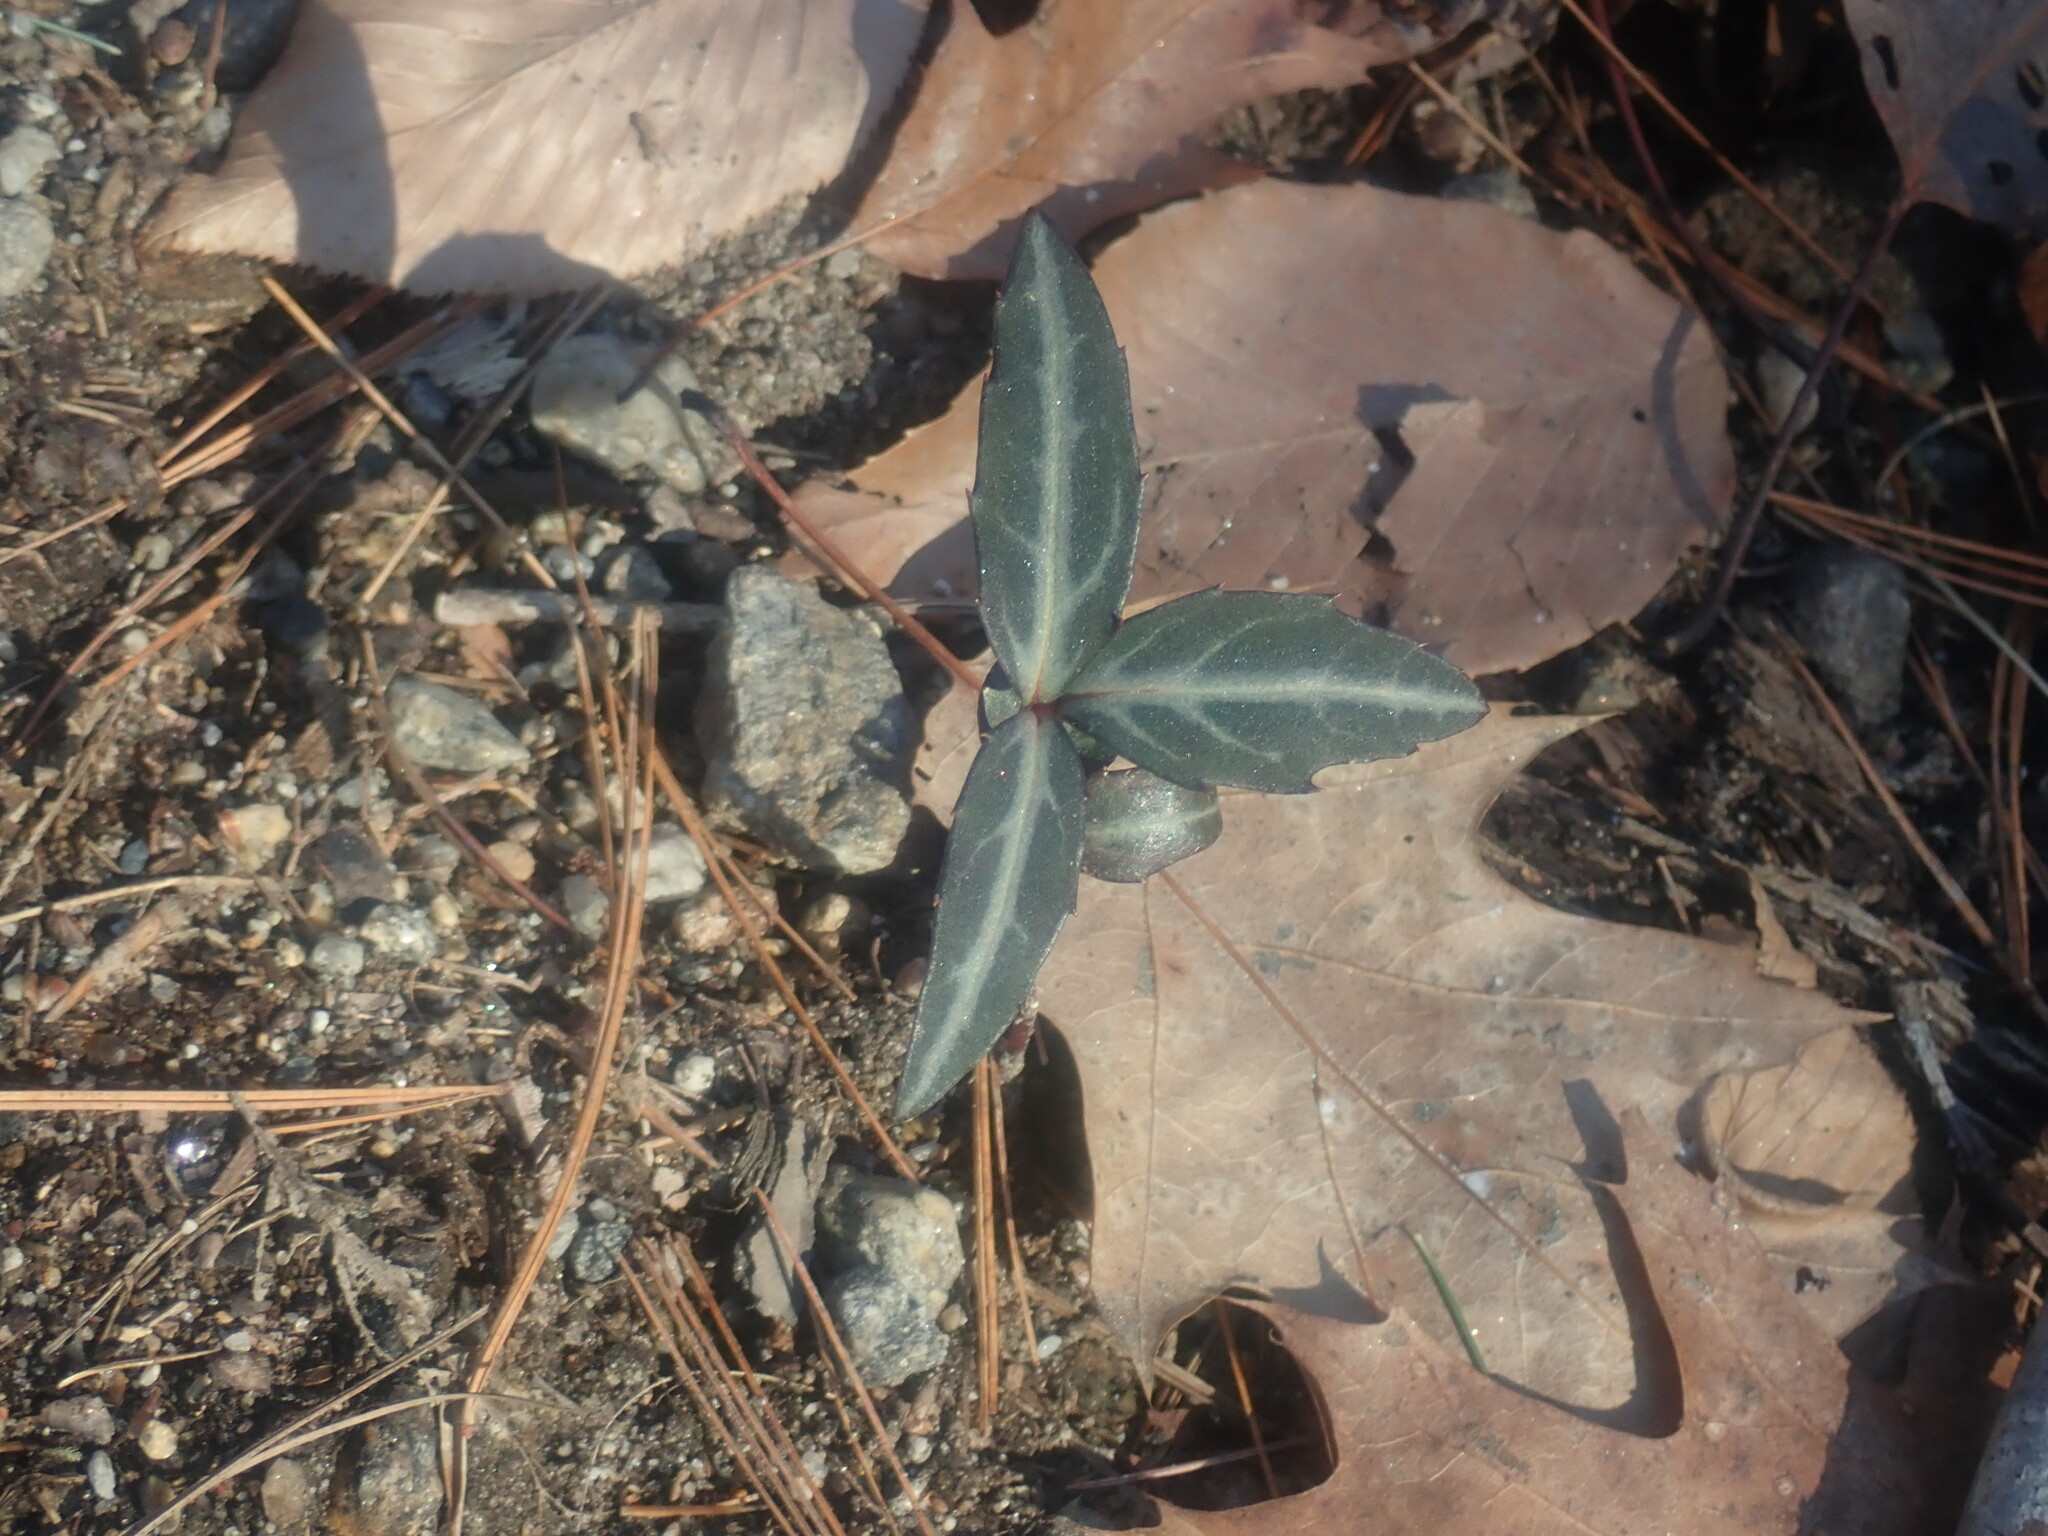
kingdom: Plantae
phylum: Tracheophyta
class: Magnoliopsida
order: Ericales
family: Ericaceae
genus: Chimaphila
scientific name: Chimaphila maculata
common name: Spotted pipsissewa
